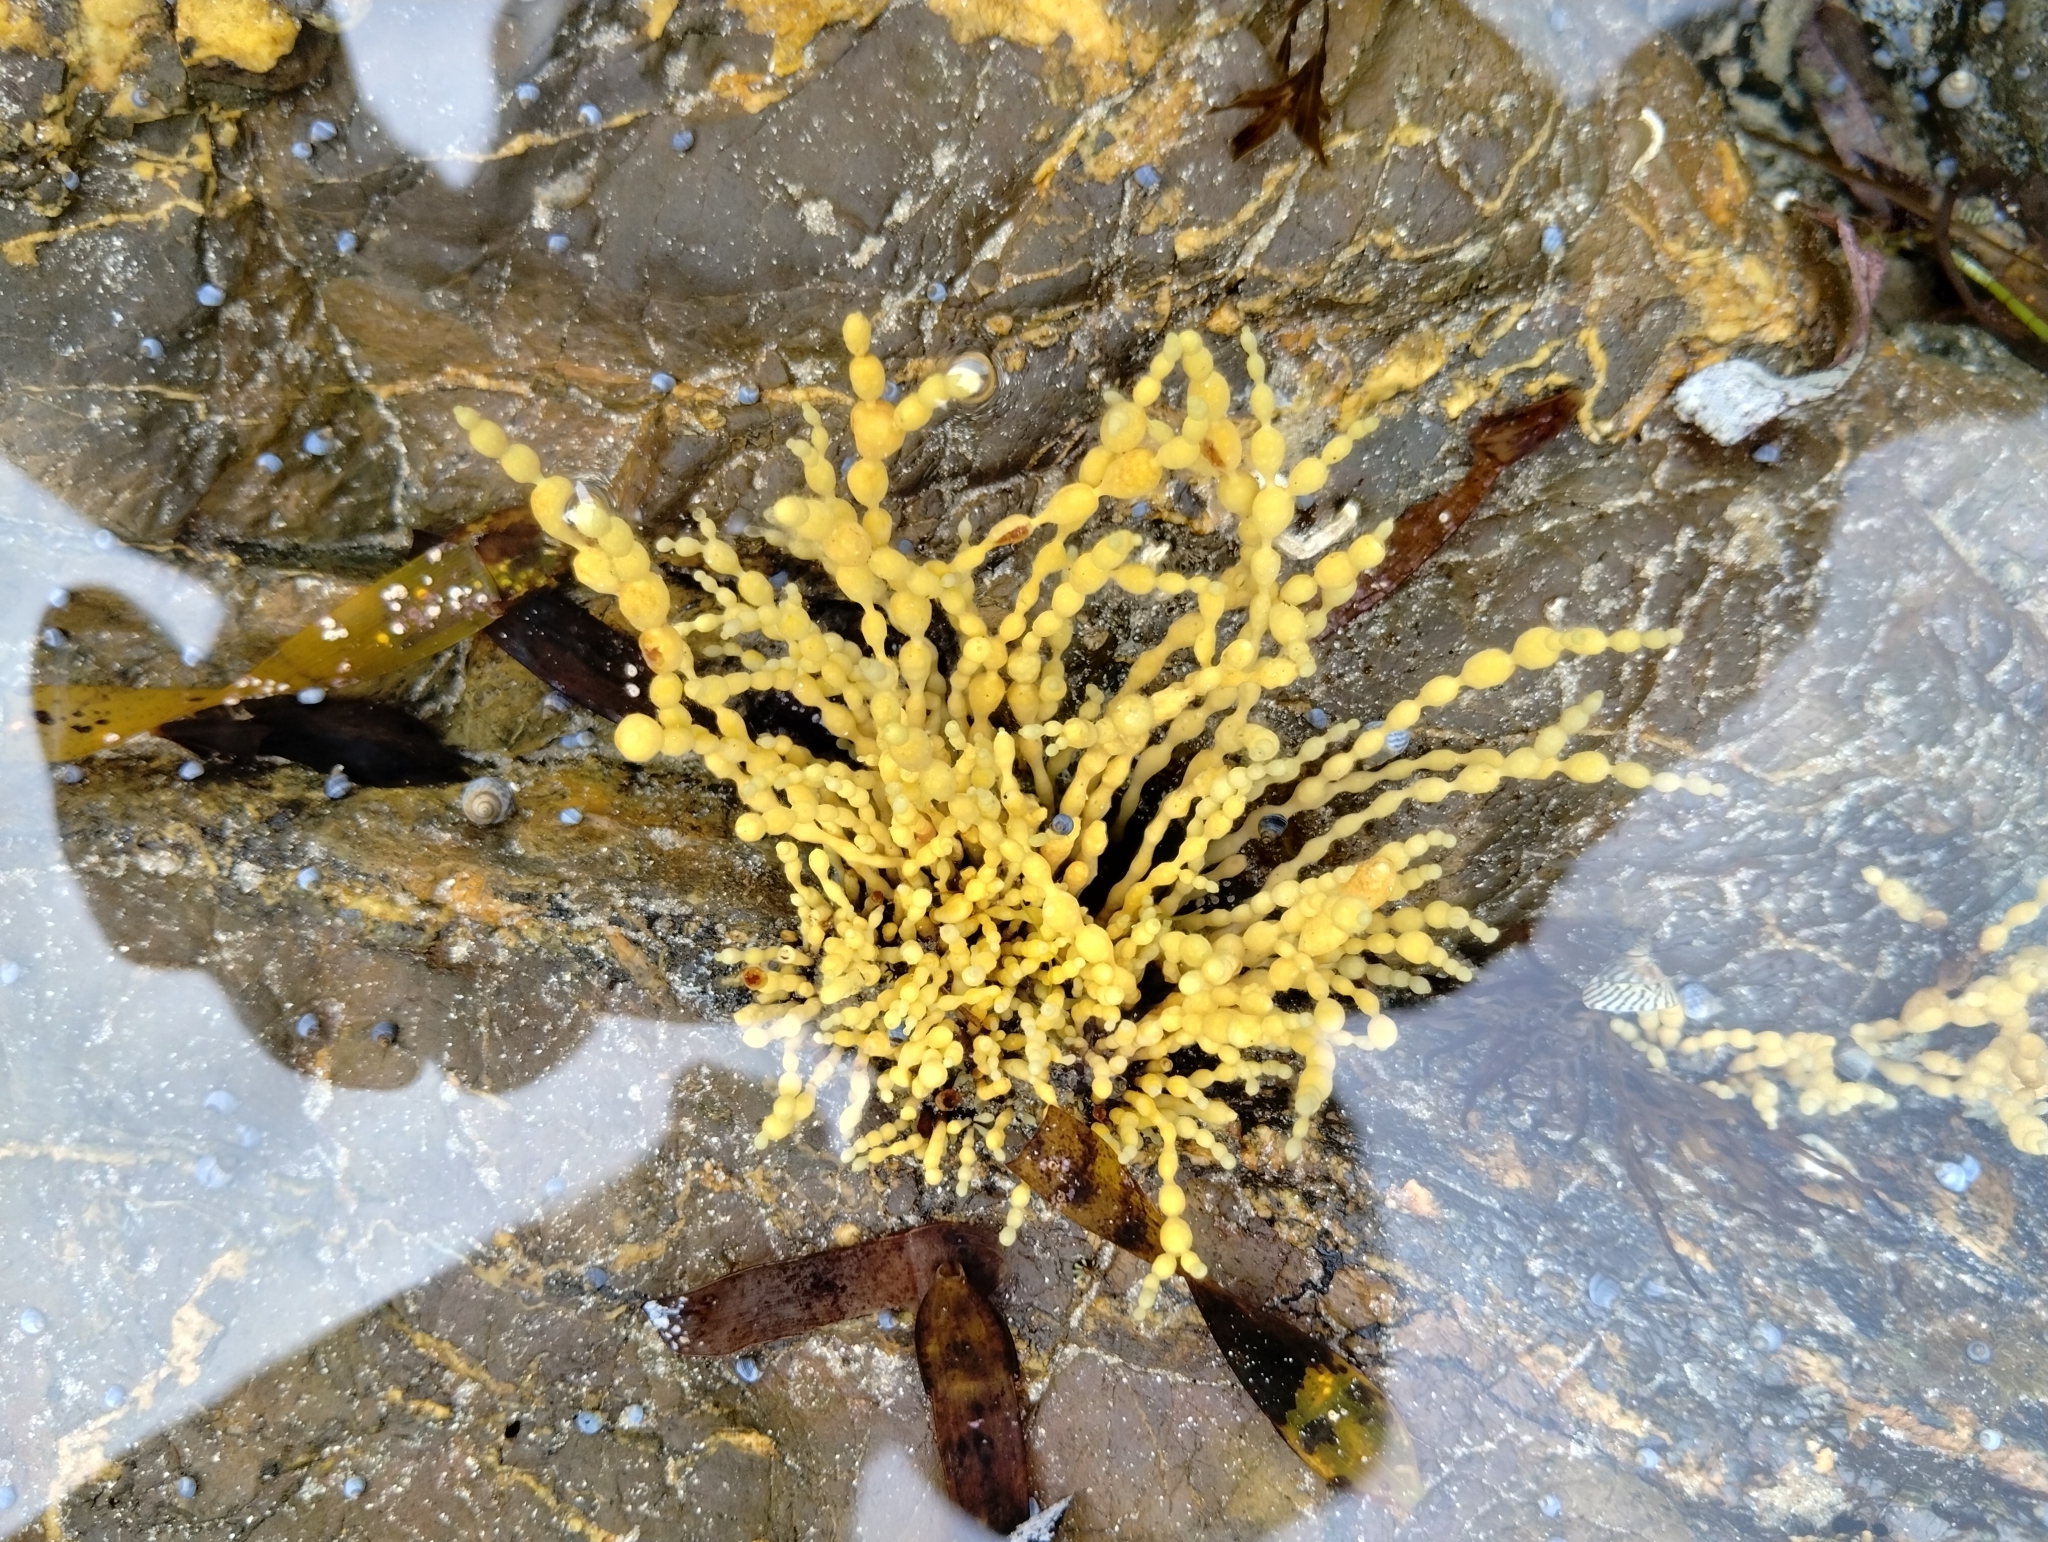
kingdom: Chromista
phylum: Ochrophyta
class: Phaeophyceae
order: Fucales
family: Hormosiraceae
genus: Hormosira
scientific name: Hormosira banksii
